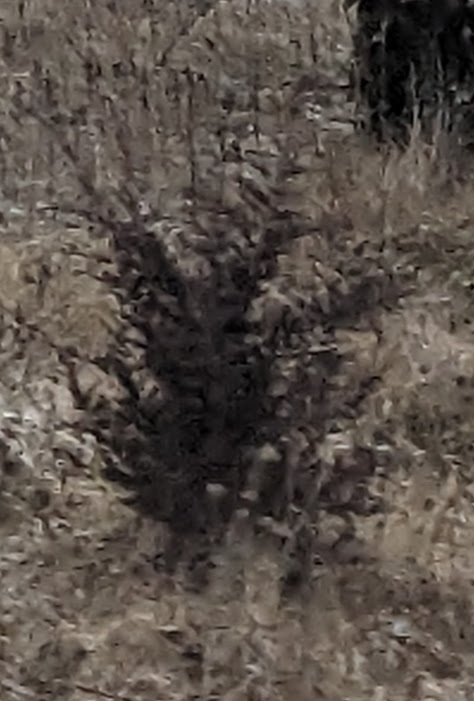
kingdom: Plantae
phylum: Tracheophyta
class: Pinopsida
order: Pinales
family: Cupressaceae
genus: Juniperus
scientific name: Juniperus virginiana
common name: Red juniper
